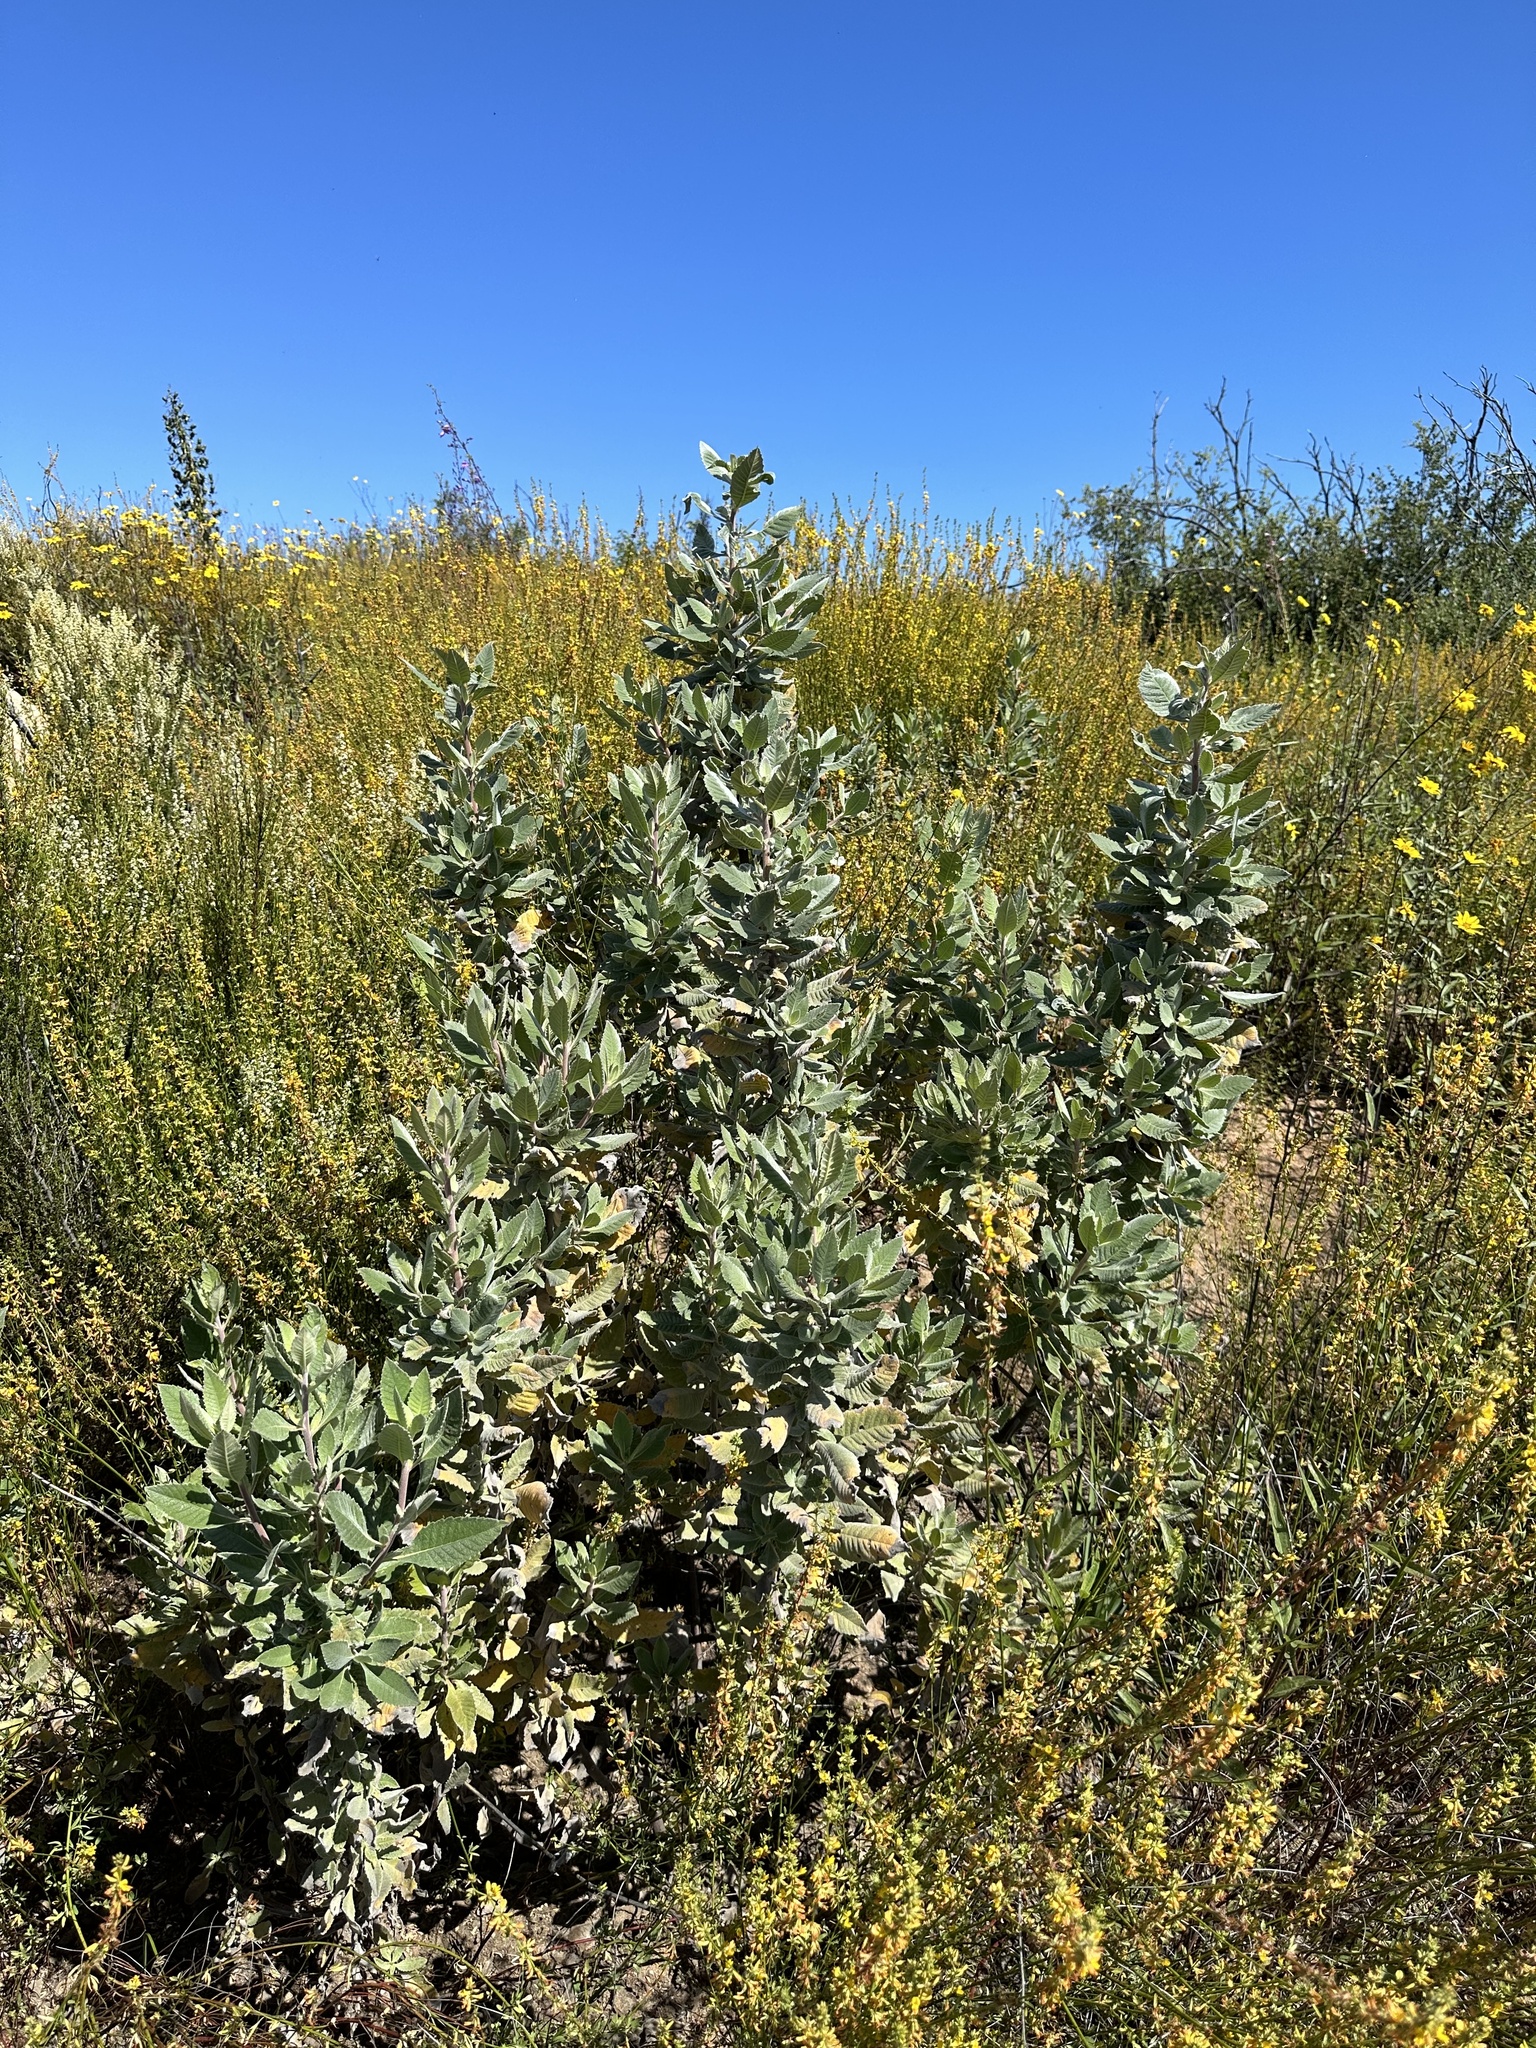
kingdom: Plantae
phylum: Tracheophyta
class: Magnoliopsida
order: Boraginales
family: Namaceae
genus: Eriodictyon
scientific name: Eriodictyon crassifolium
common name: Thick-leaf yerba-santa
